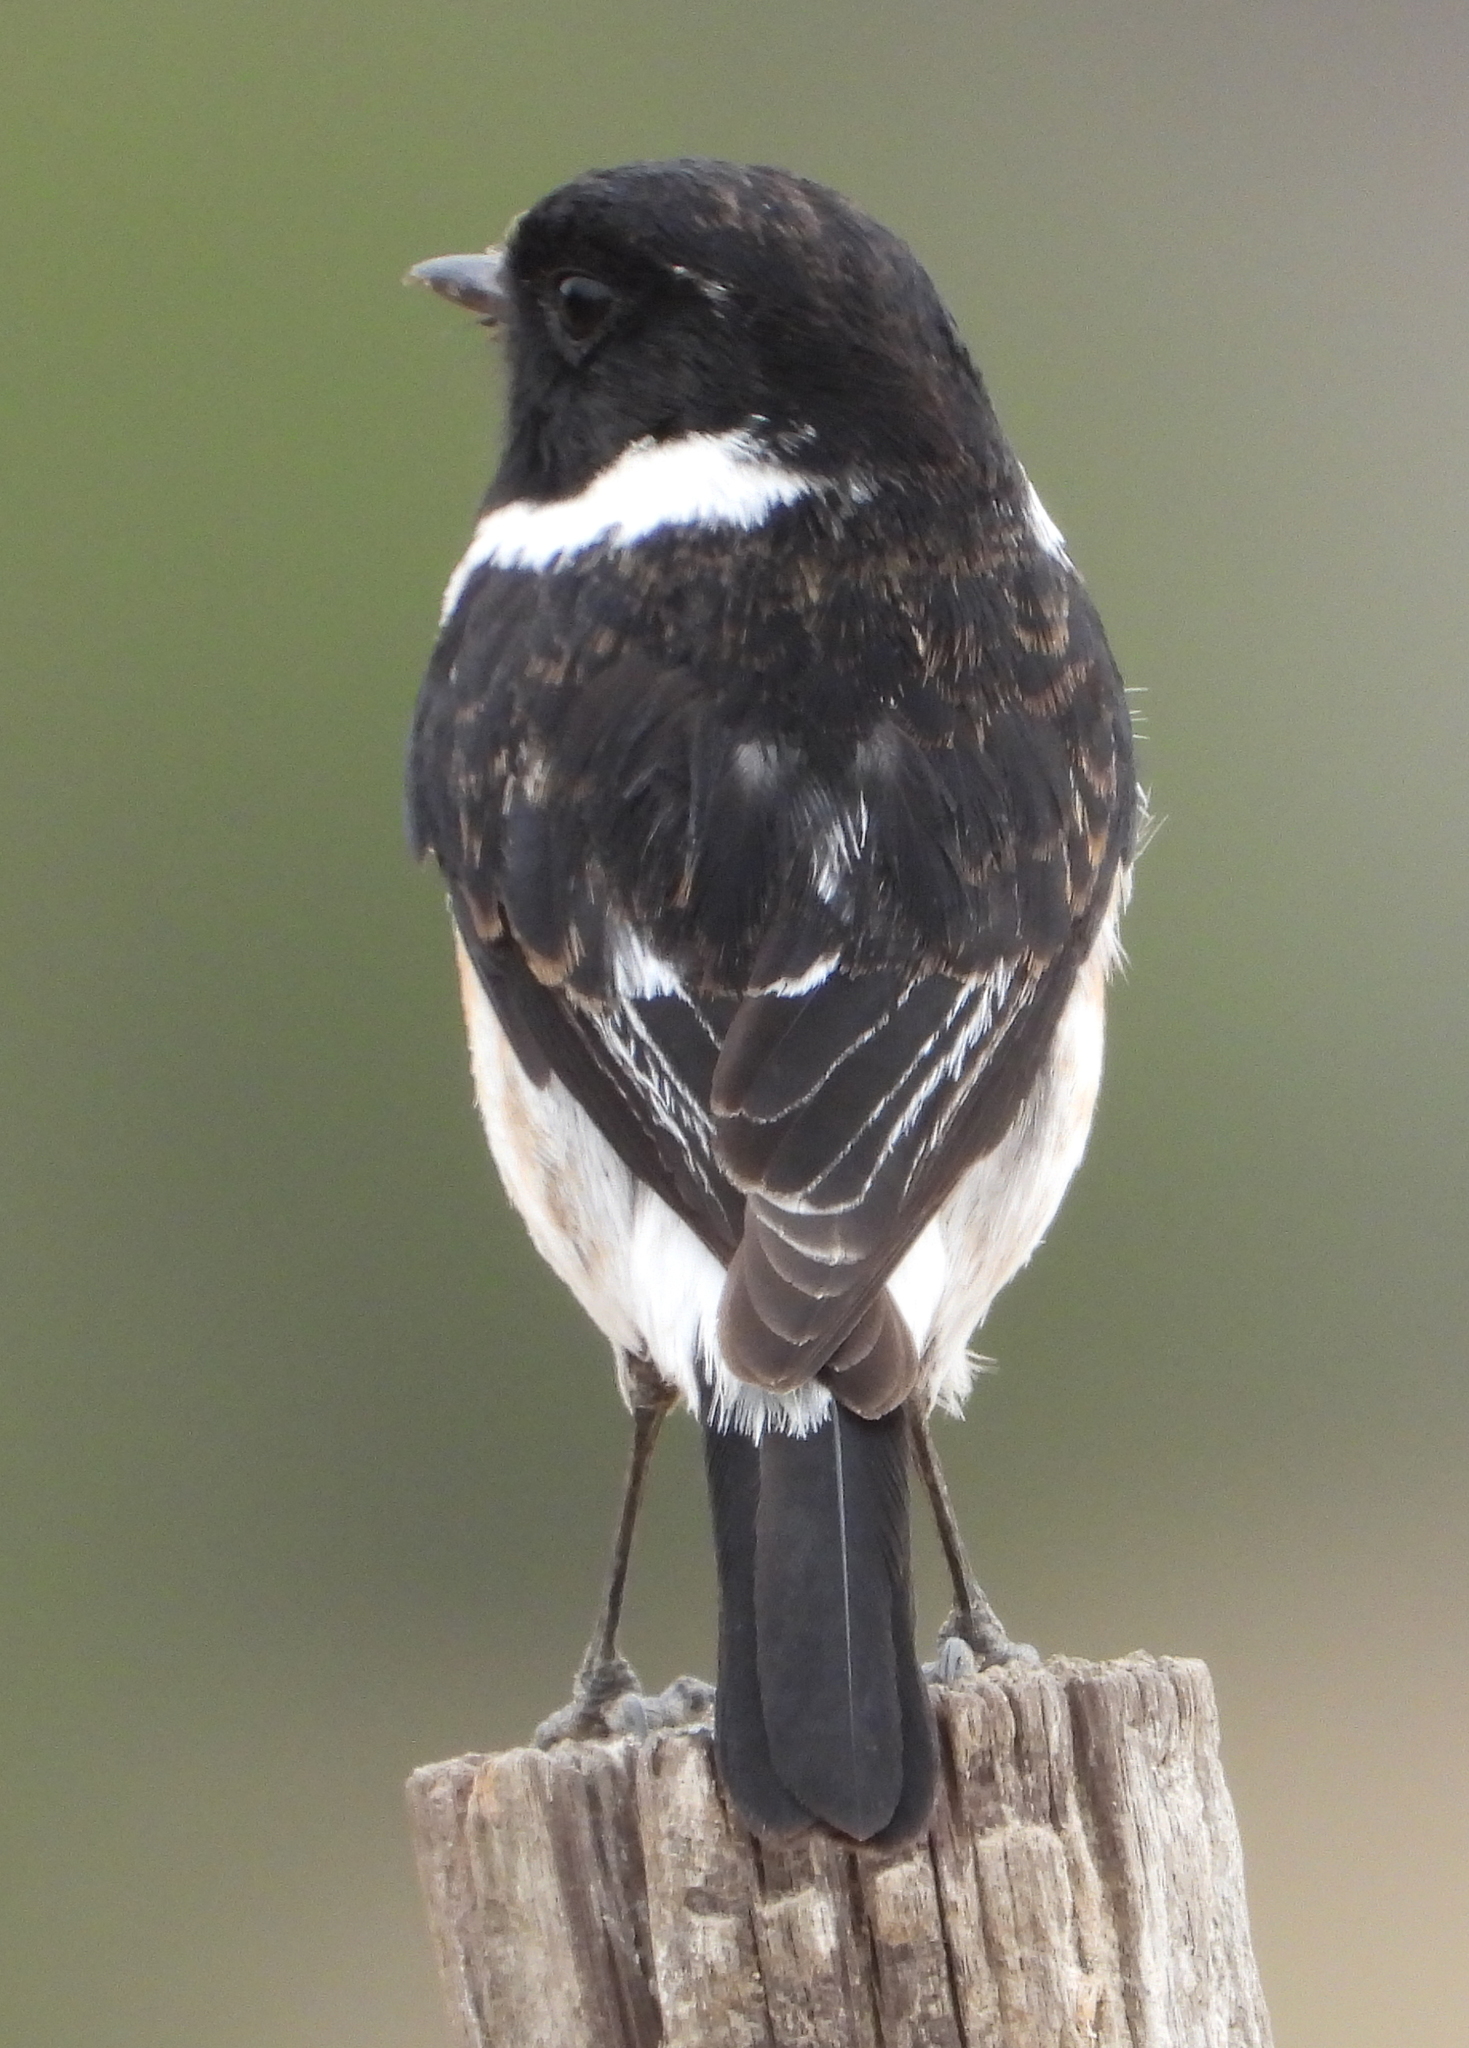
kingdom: Animalia
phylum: Chordata
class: Aves
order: Passeriformes
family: Muscicapidae
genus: Saxicola
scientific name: Saxicola torquatus
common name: African stonechat
